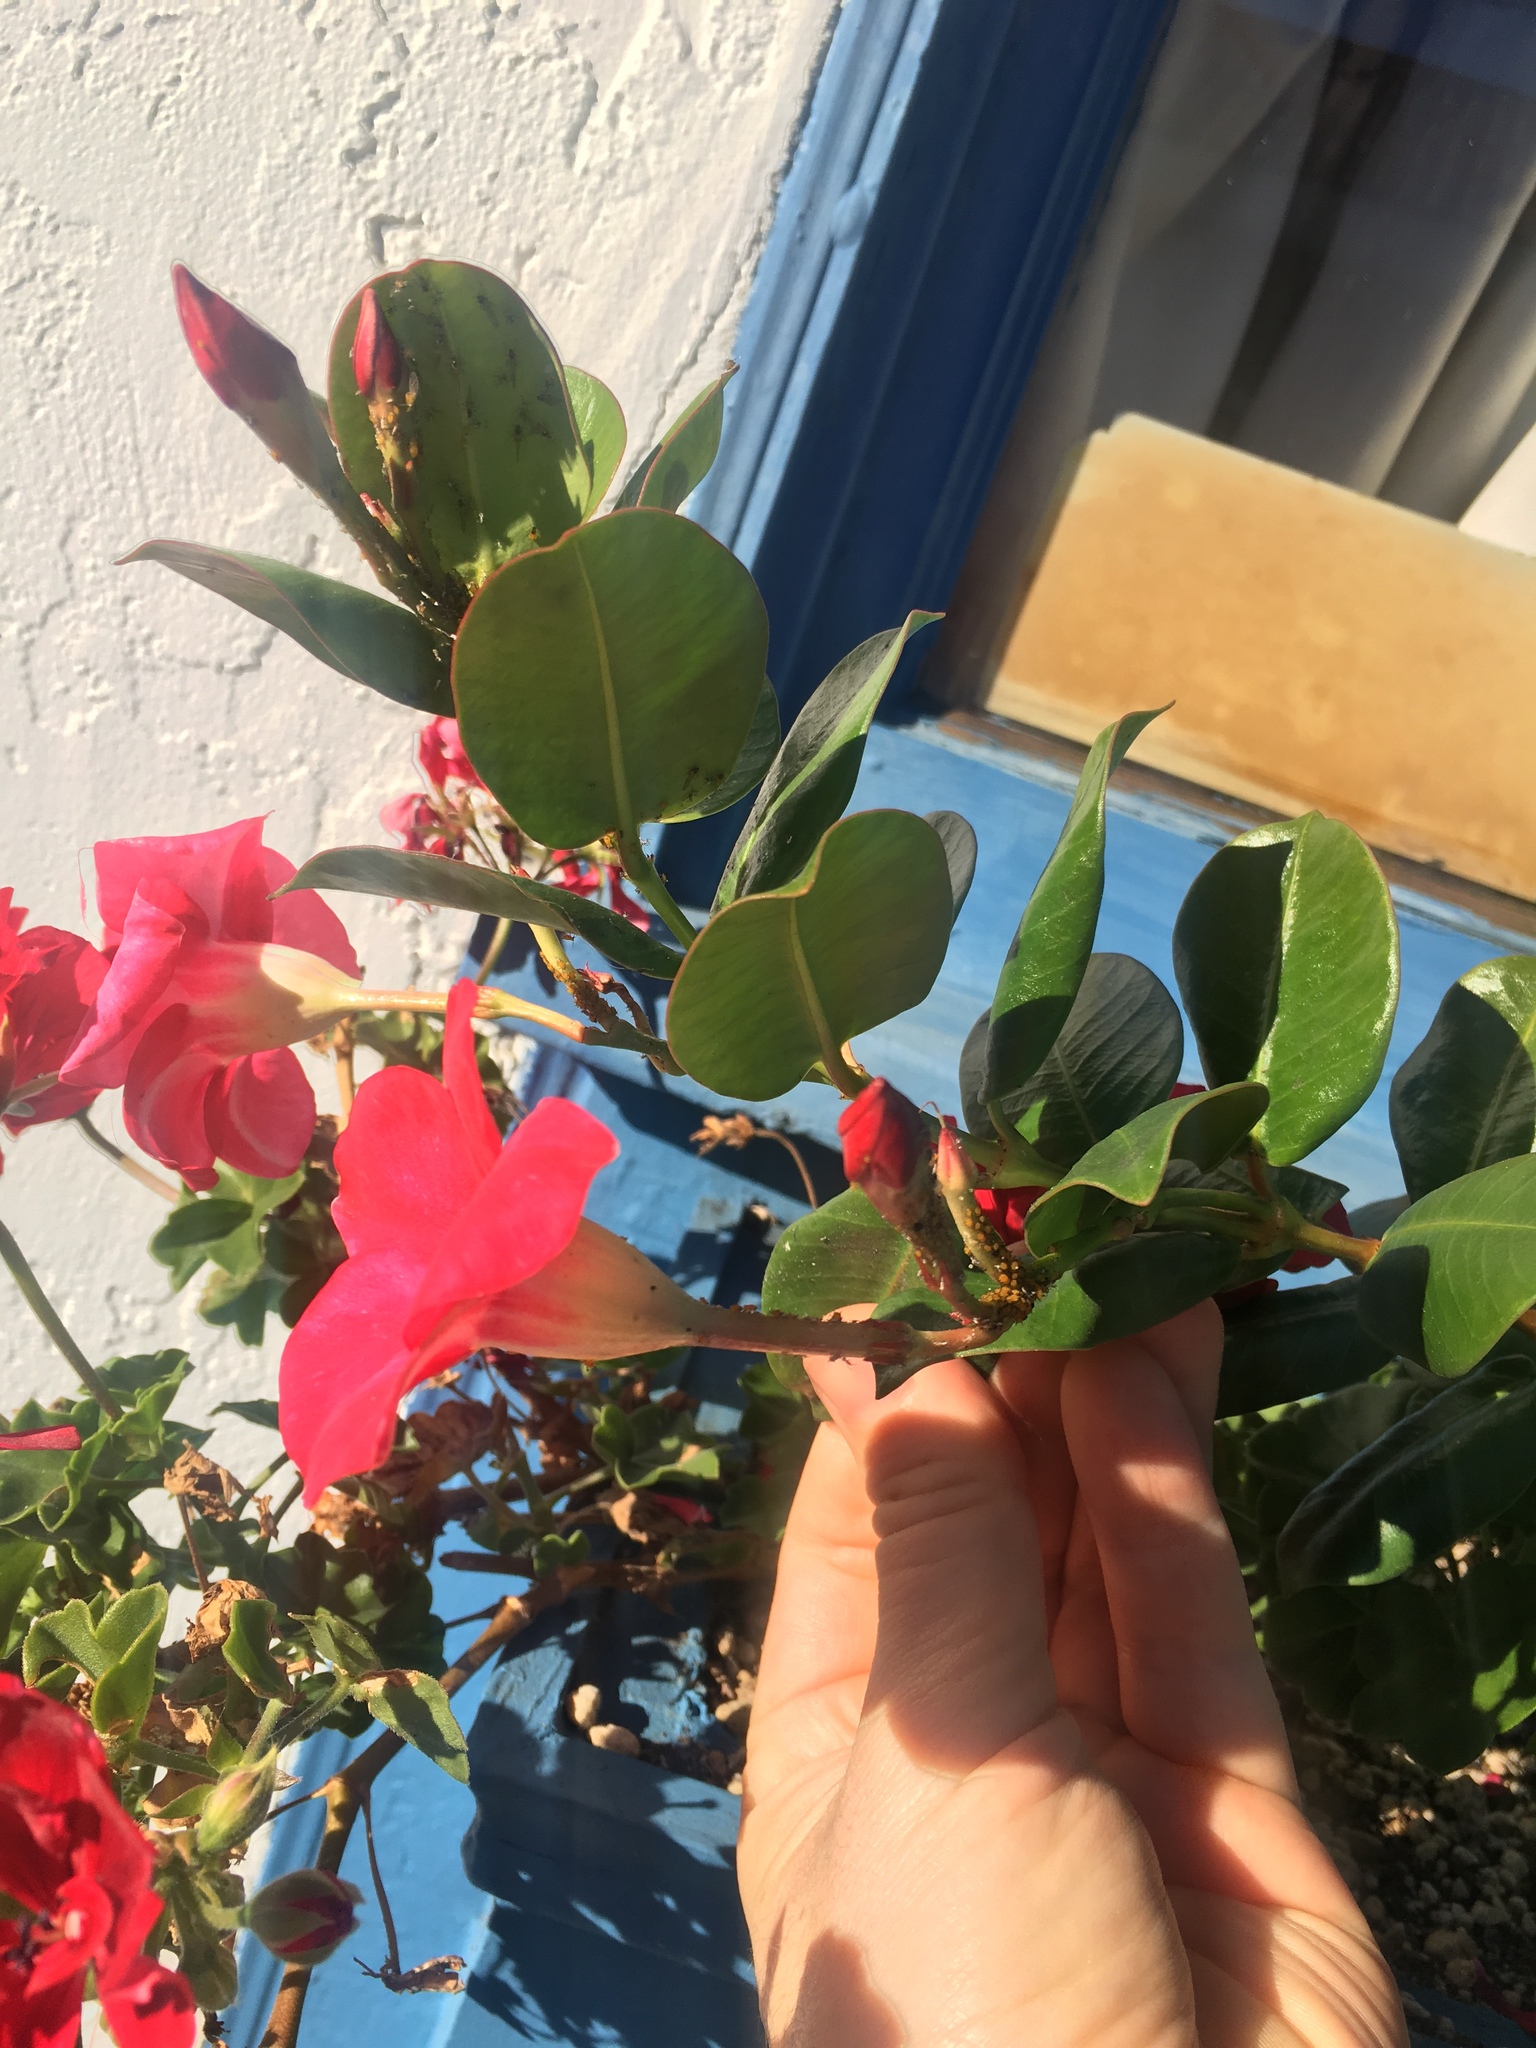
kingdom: Animalia
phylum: Arthropoda
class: Insecta
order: Hemiptera
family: Aphididae
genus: Aphis
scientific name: Aphis nerii
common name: Oleander aphid
